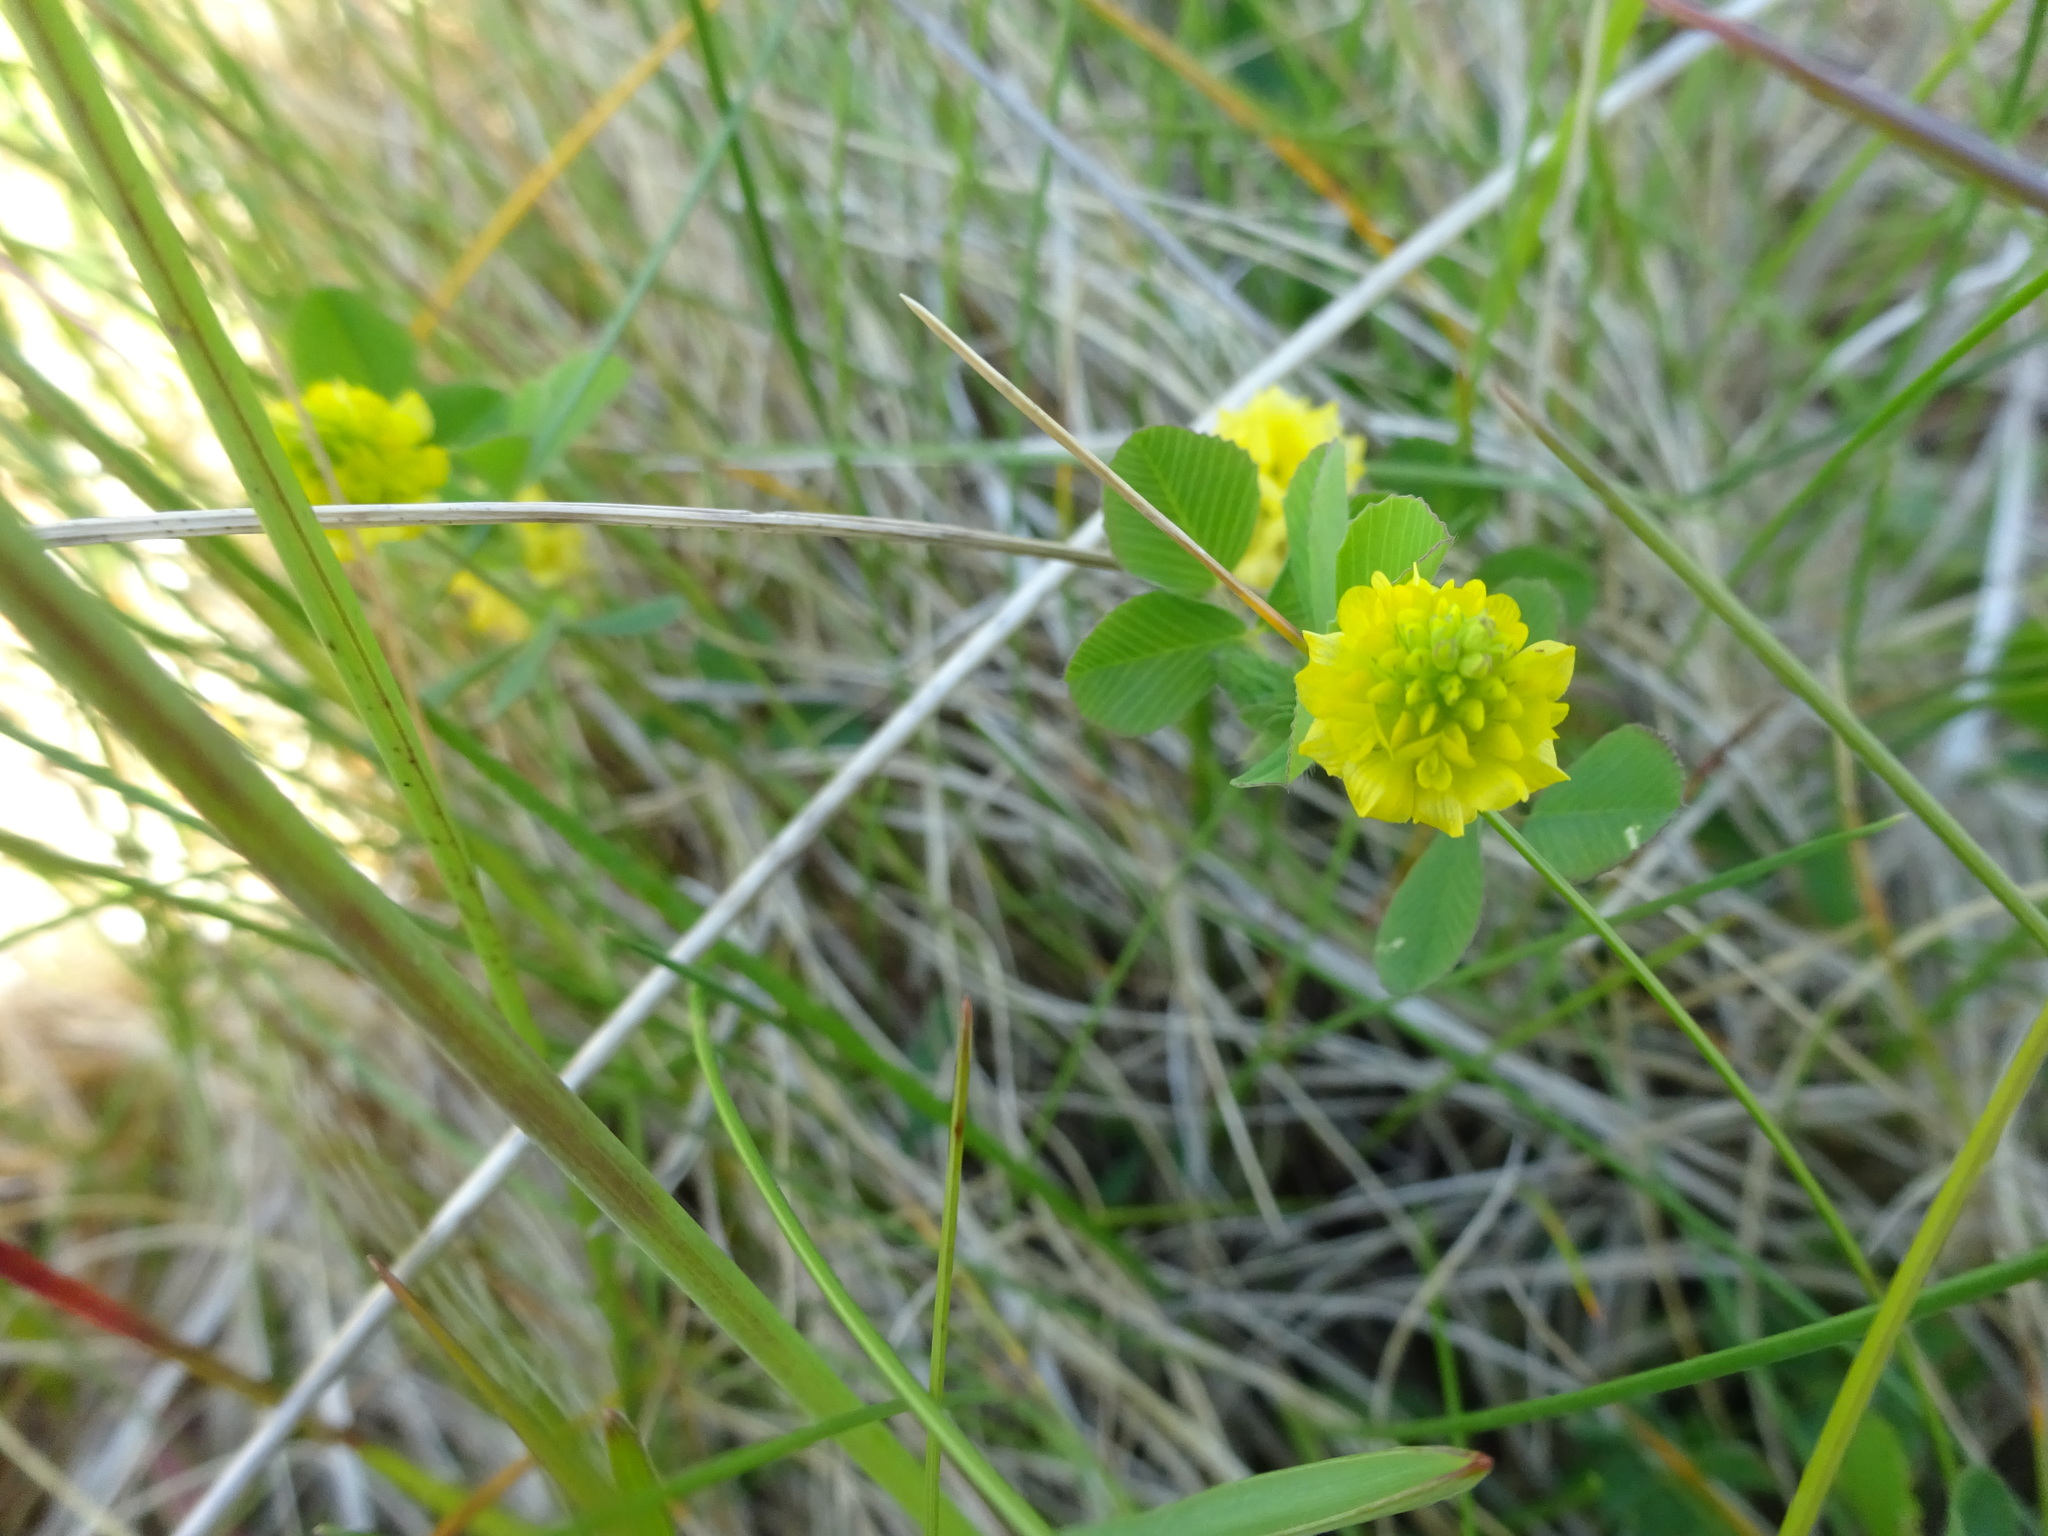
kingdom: Plantae
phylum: Tracheophyta
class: Magnoliopsida
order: Fabales
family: Fabaceae
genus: Trifolium
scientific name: Trifolium campestre
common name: Field clover
